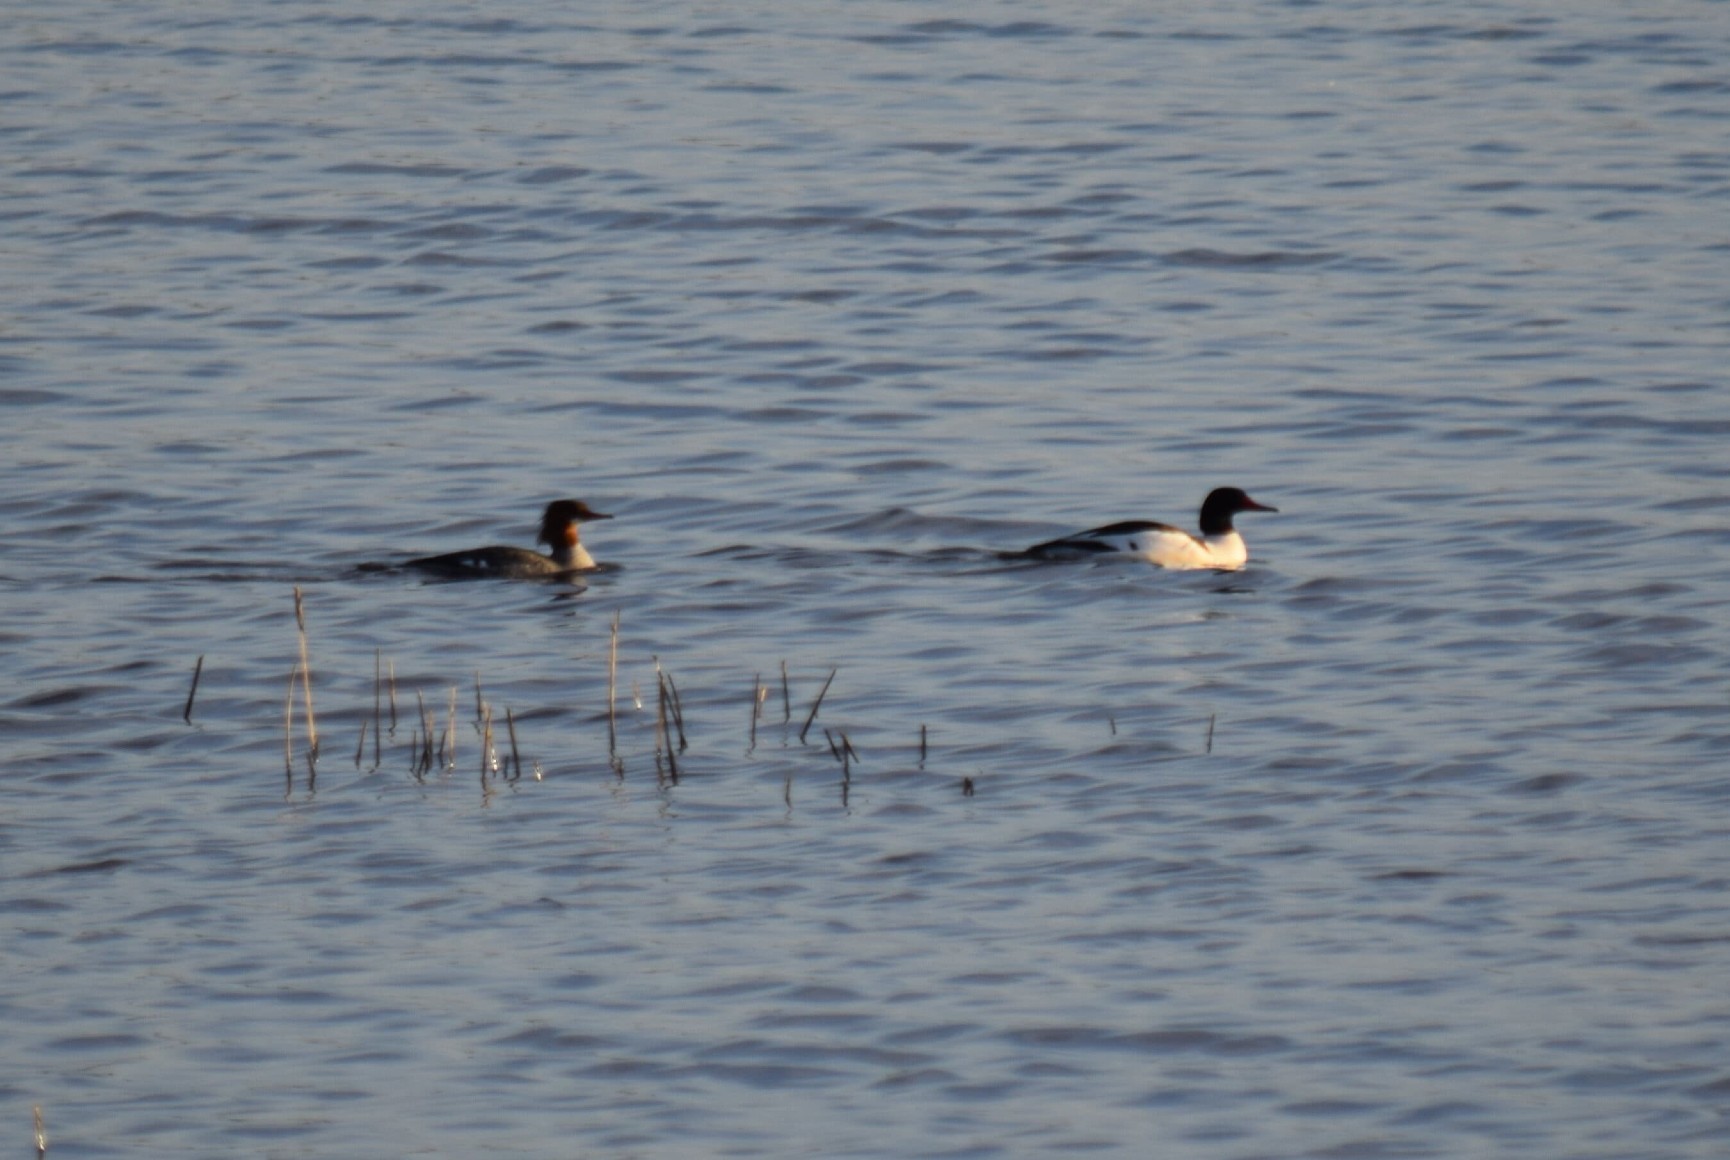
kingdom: Animalia
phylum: Chordata
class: Aves
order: Anseriformes
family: Anatidae
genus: Mergus
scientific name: Mergus merganser
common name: Common merganser
